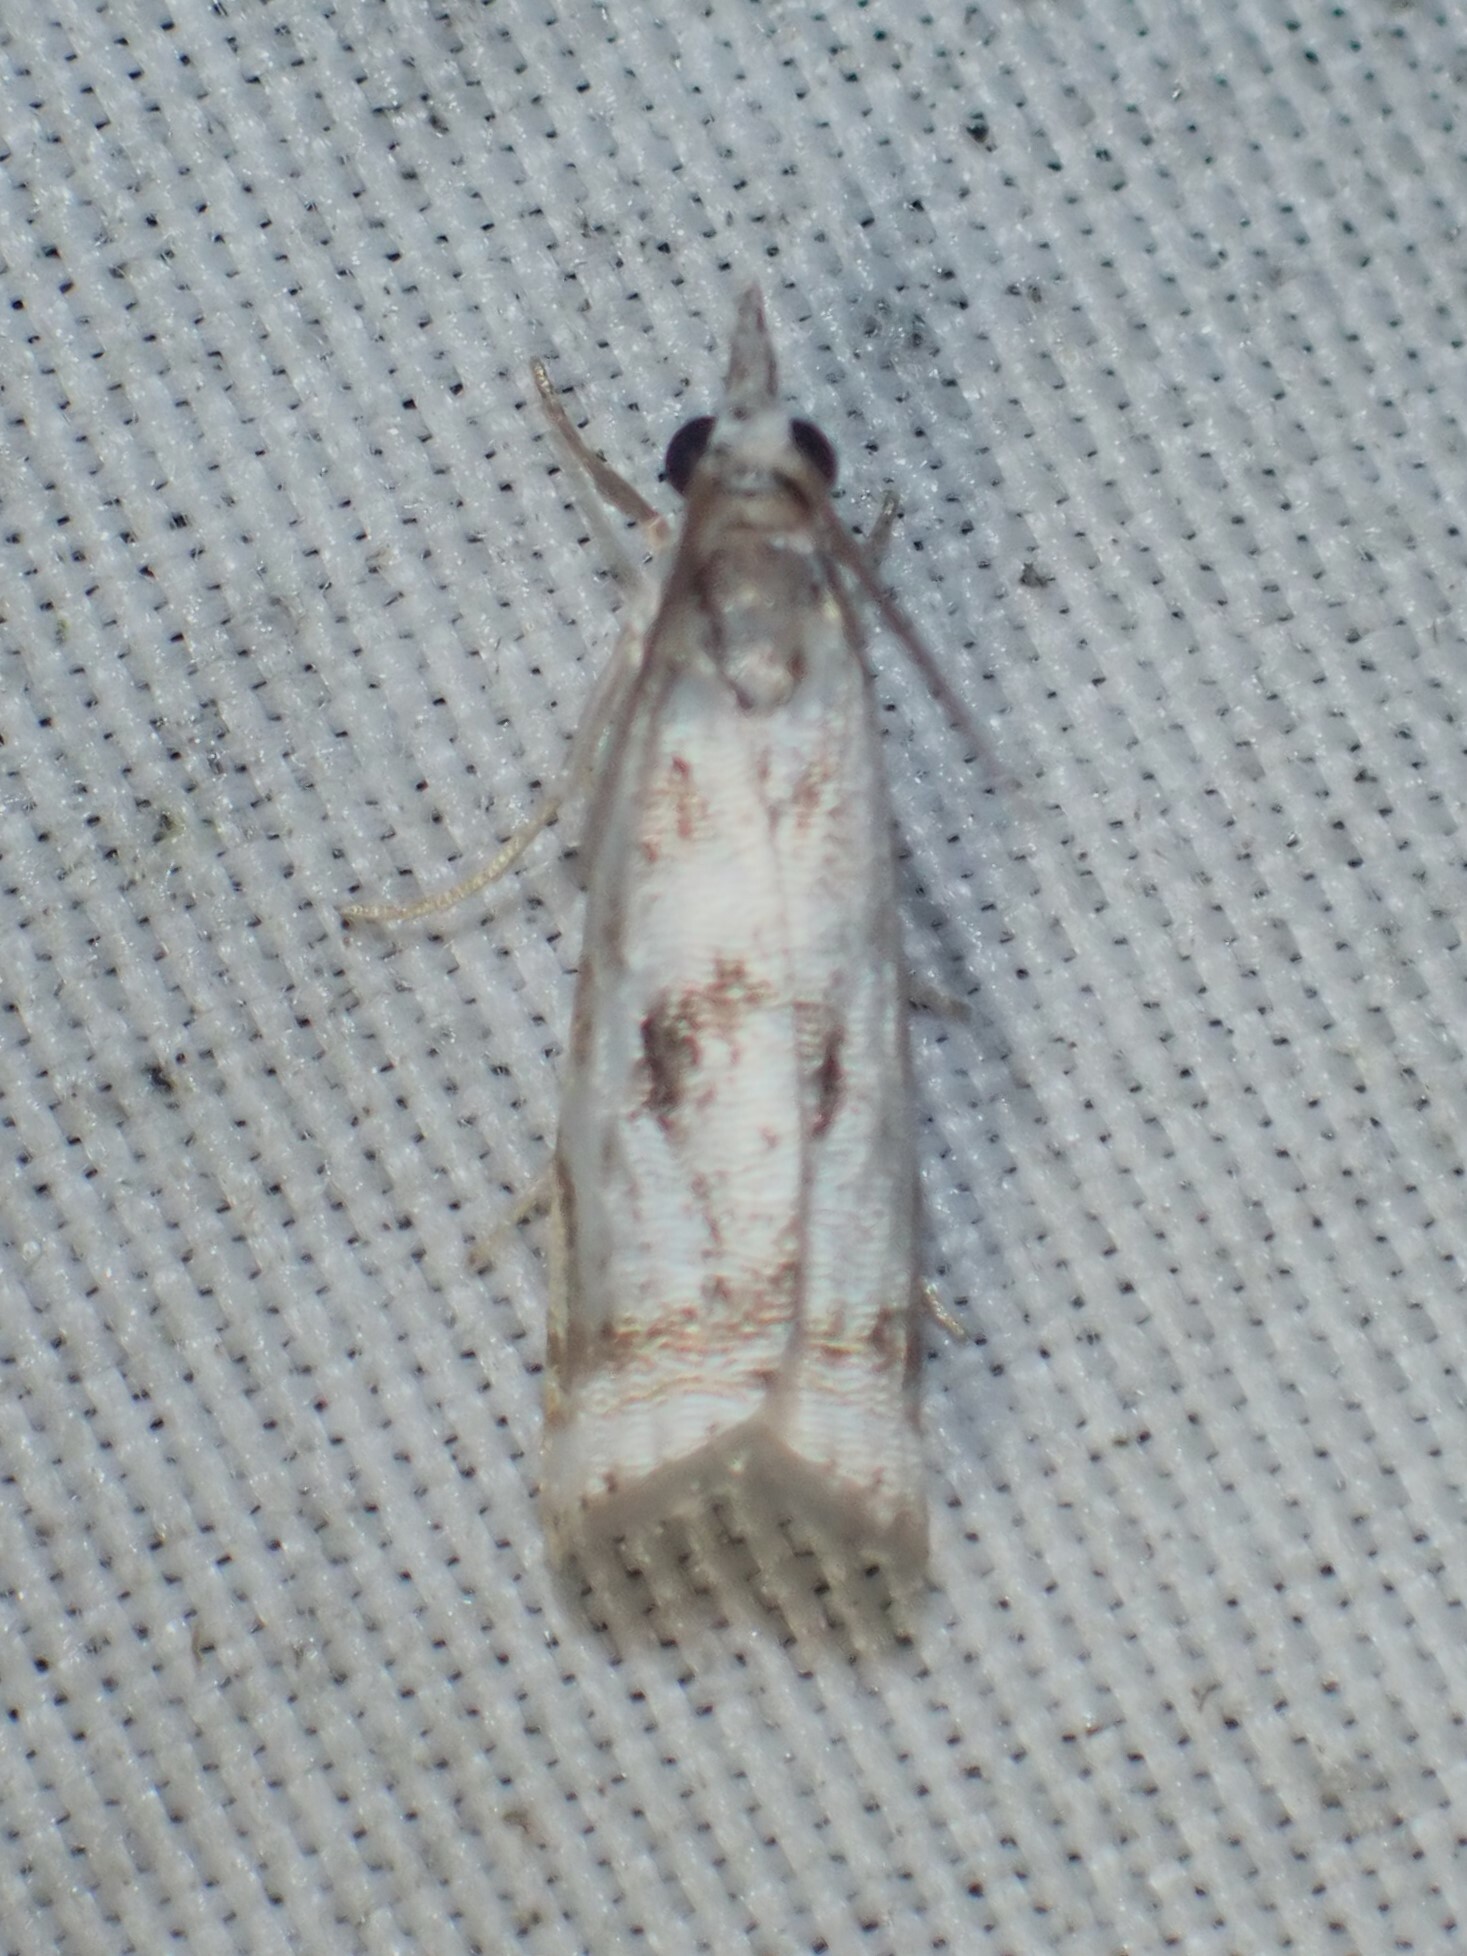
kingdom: Animalia
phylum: Arthropoda
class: Insecta
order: Lepidoptera
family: Crambidae
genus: Microcrambus
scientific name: Microcrambus elegans
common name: Elegant grass-veneer
